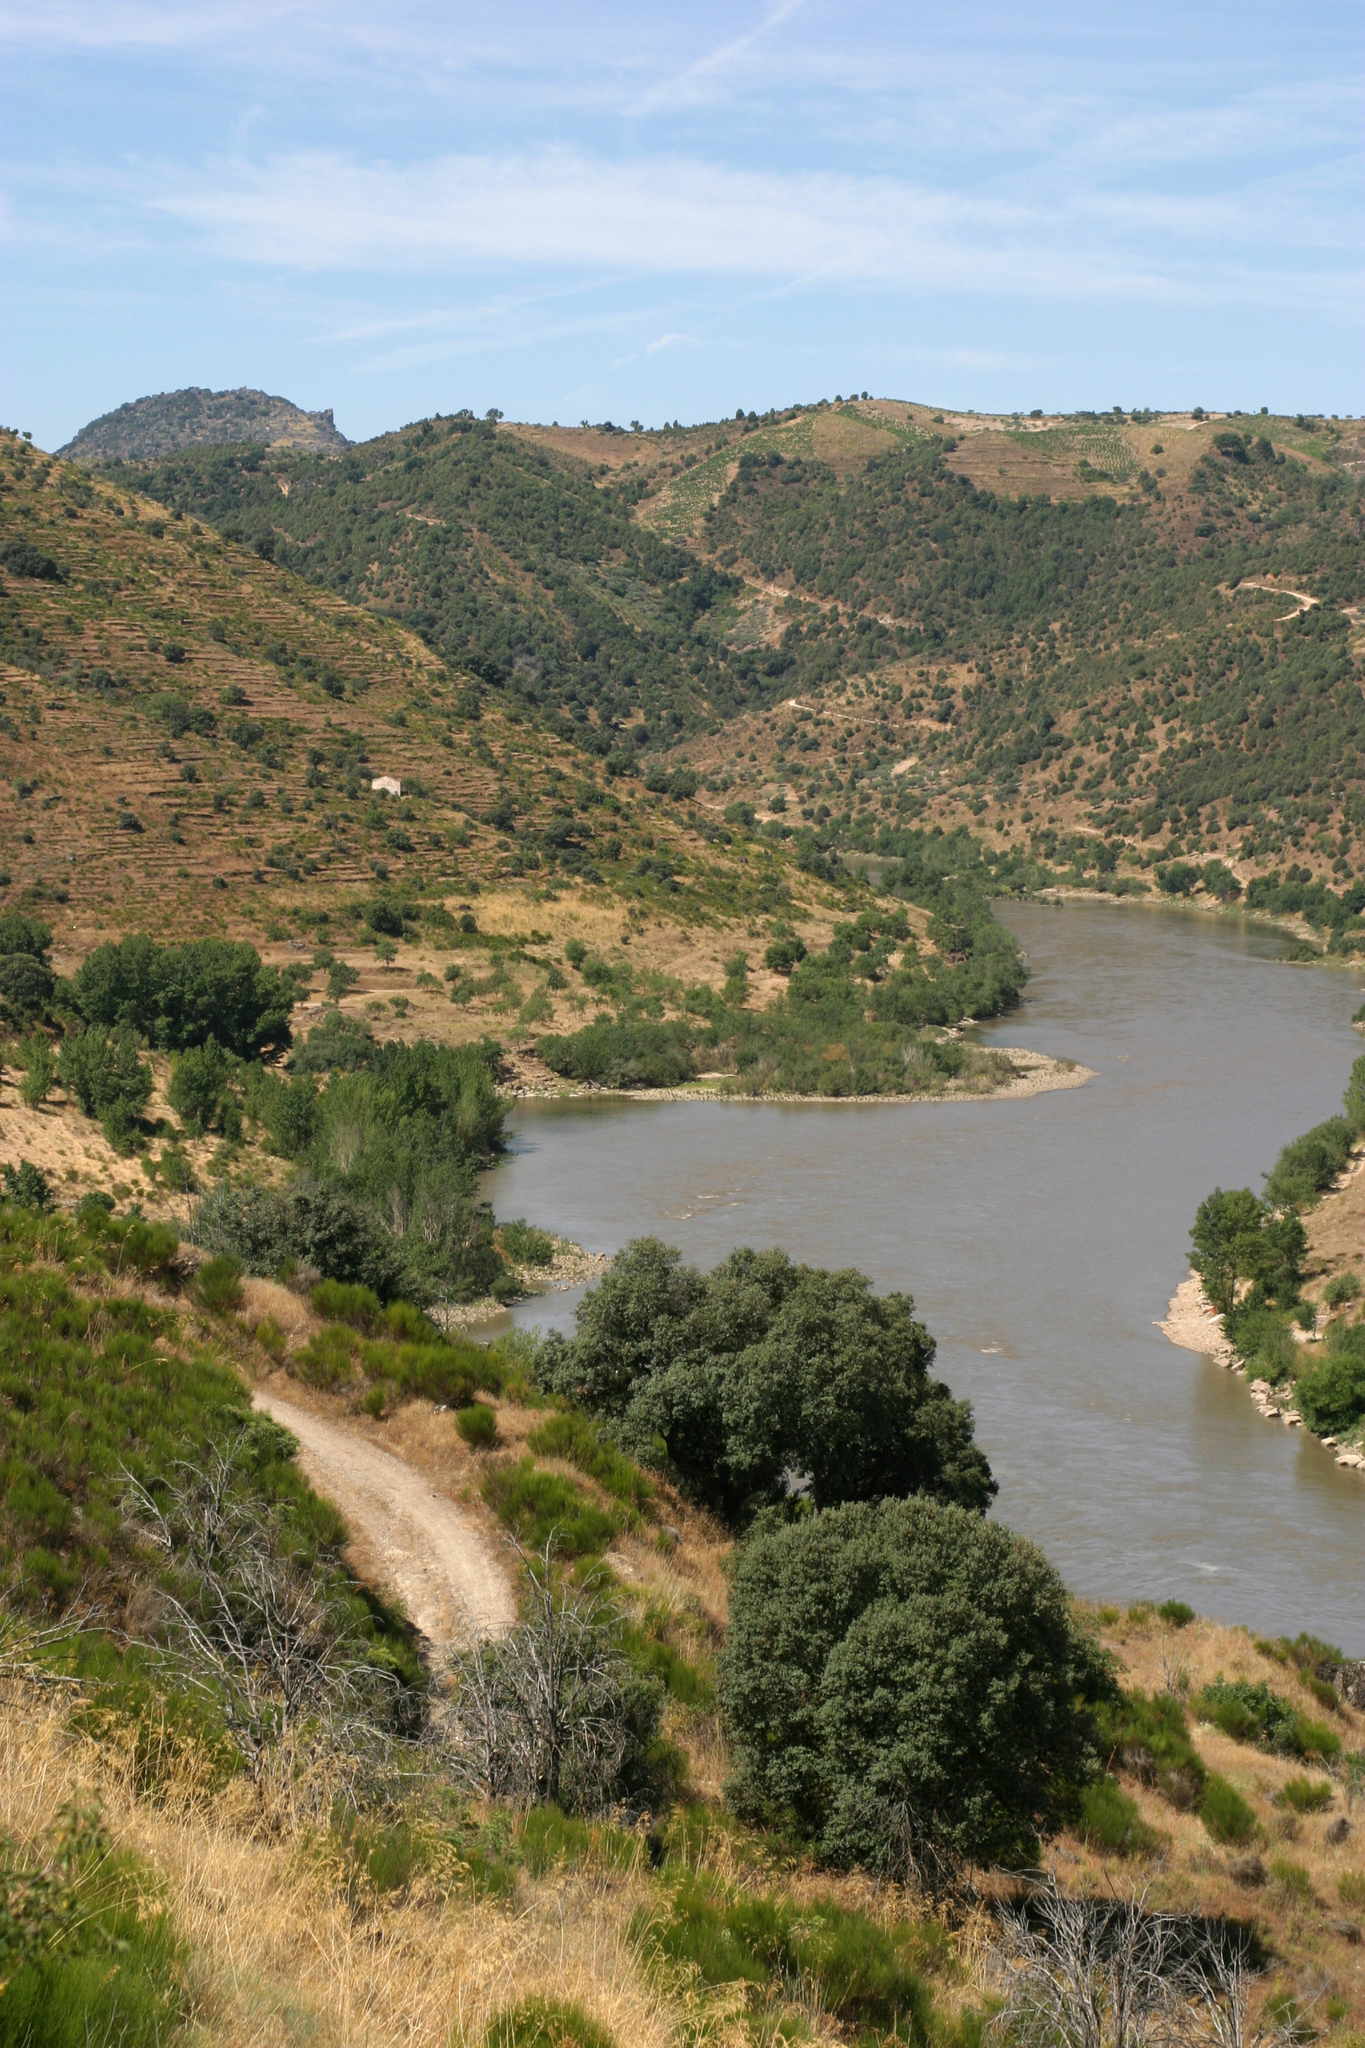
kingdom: Plantae
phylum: Tracheophyta
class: Magnoliopsida
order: Fagales
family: Fagaceae
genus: Quercus
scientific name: Quercus rotundifolia
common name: Holm oak
